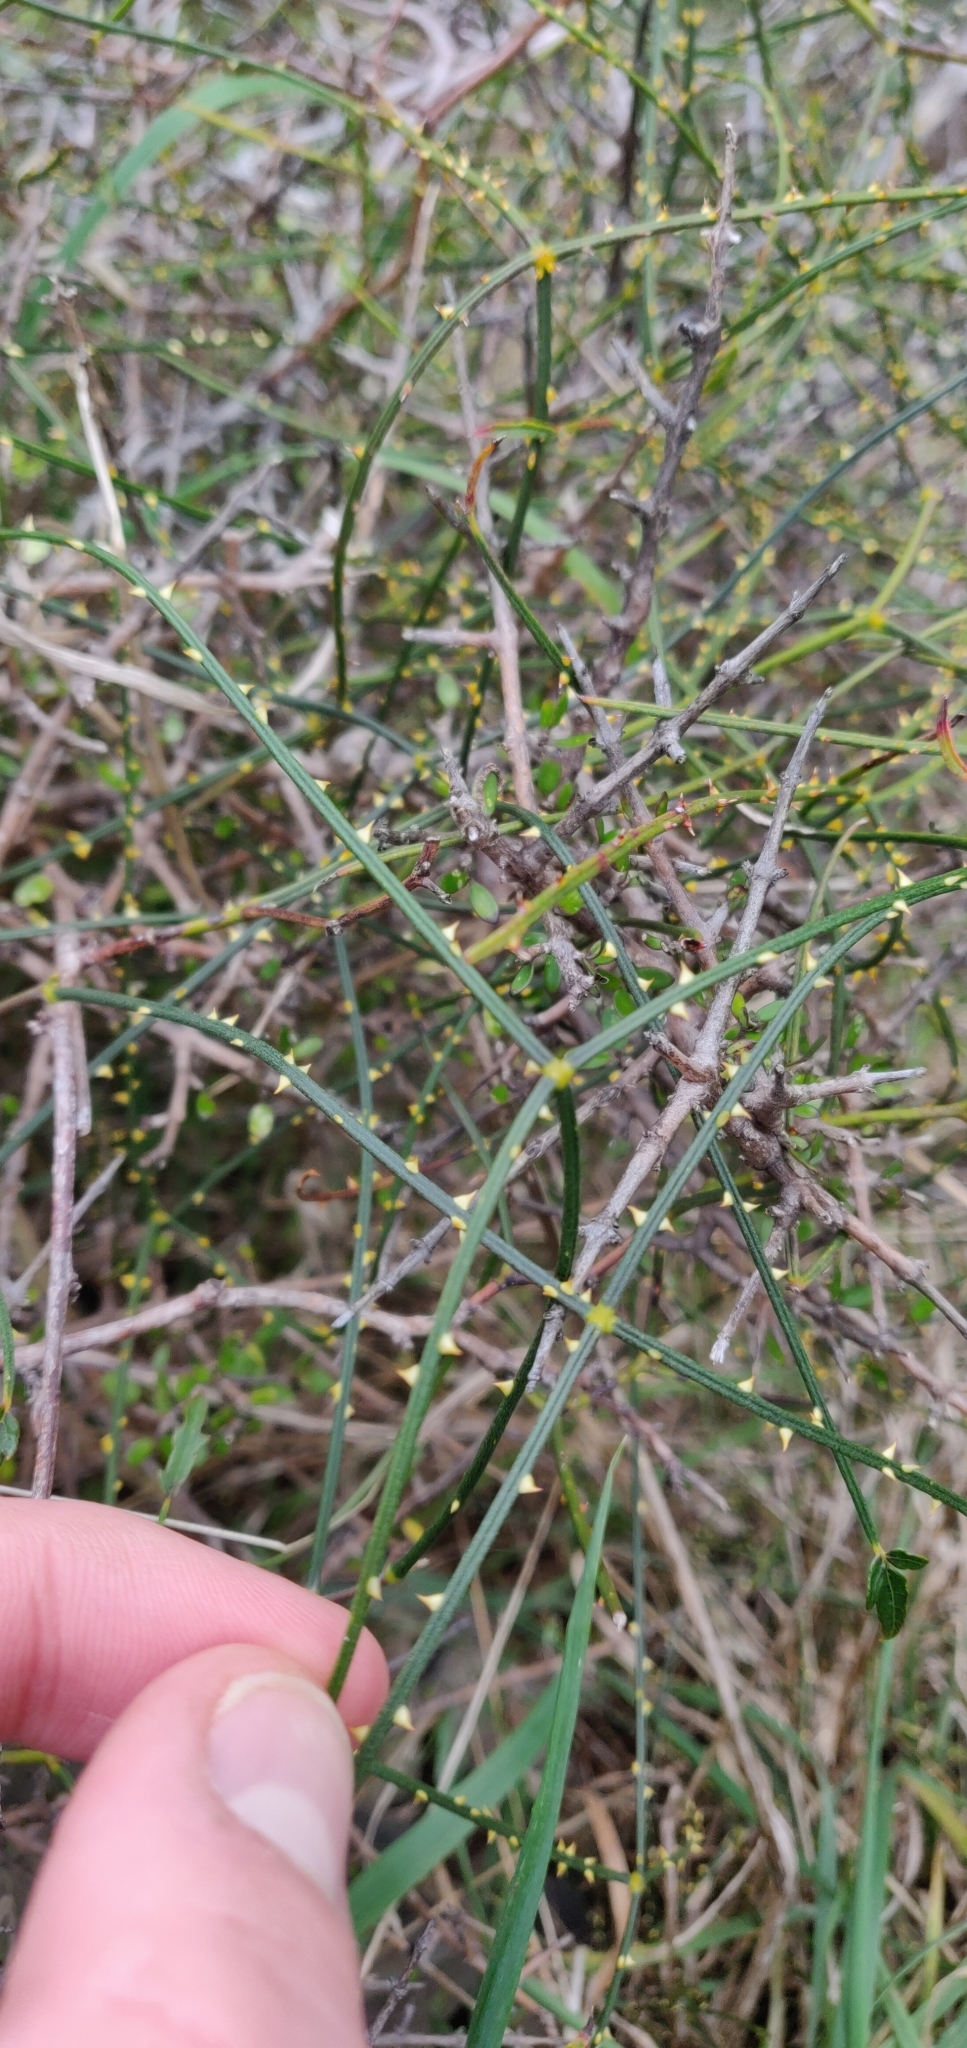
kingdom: Plantae
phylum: Tracheophyta
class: Magnoliopsida
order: Rosales
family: Rosaceae
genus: Rubus
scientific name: Rubus squarrosus
